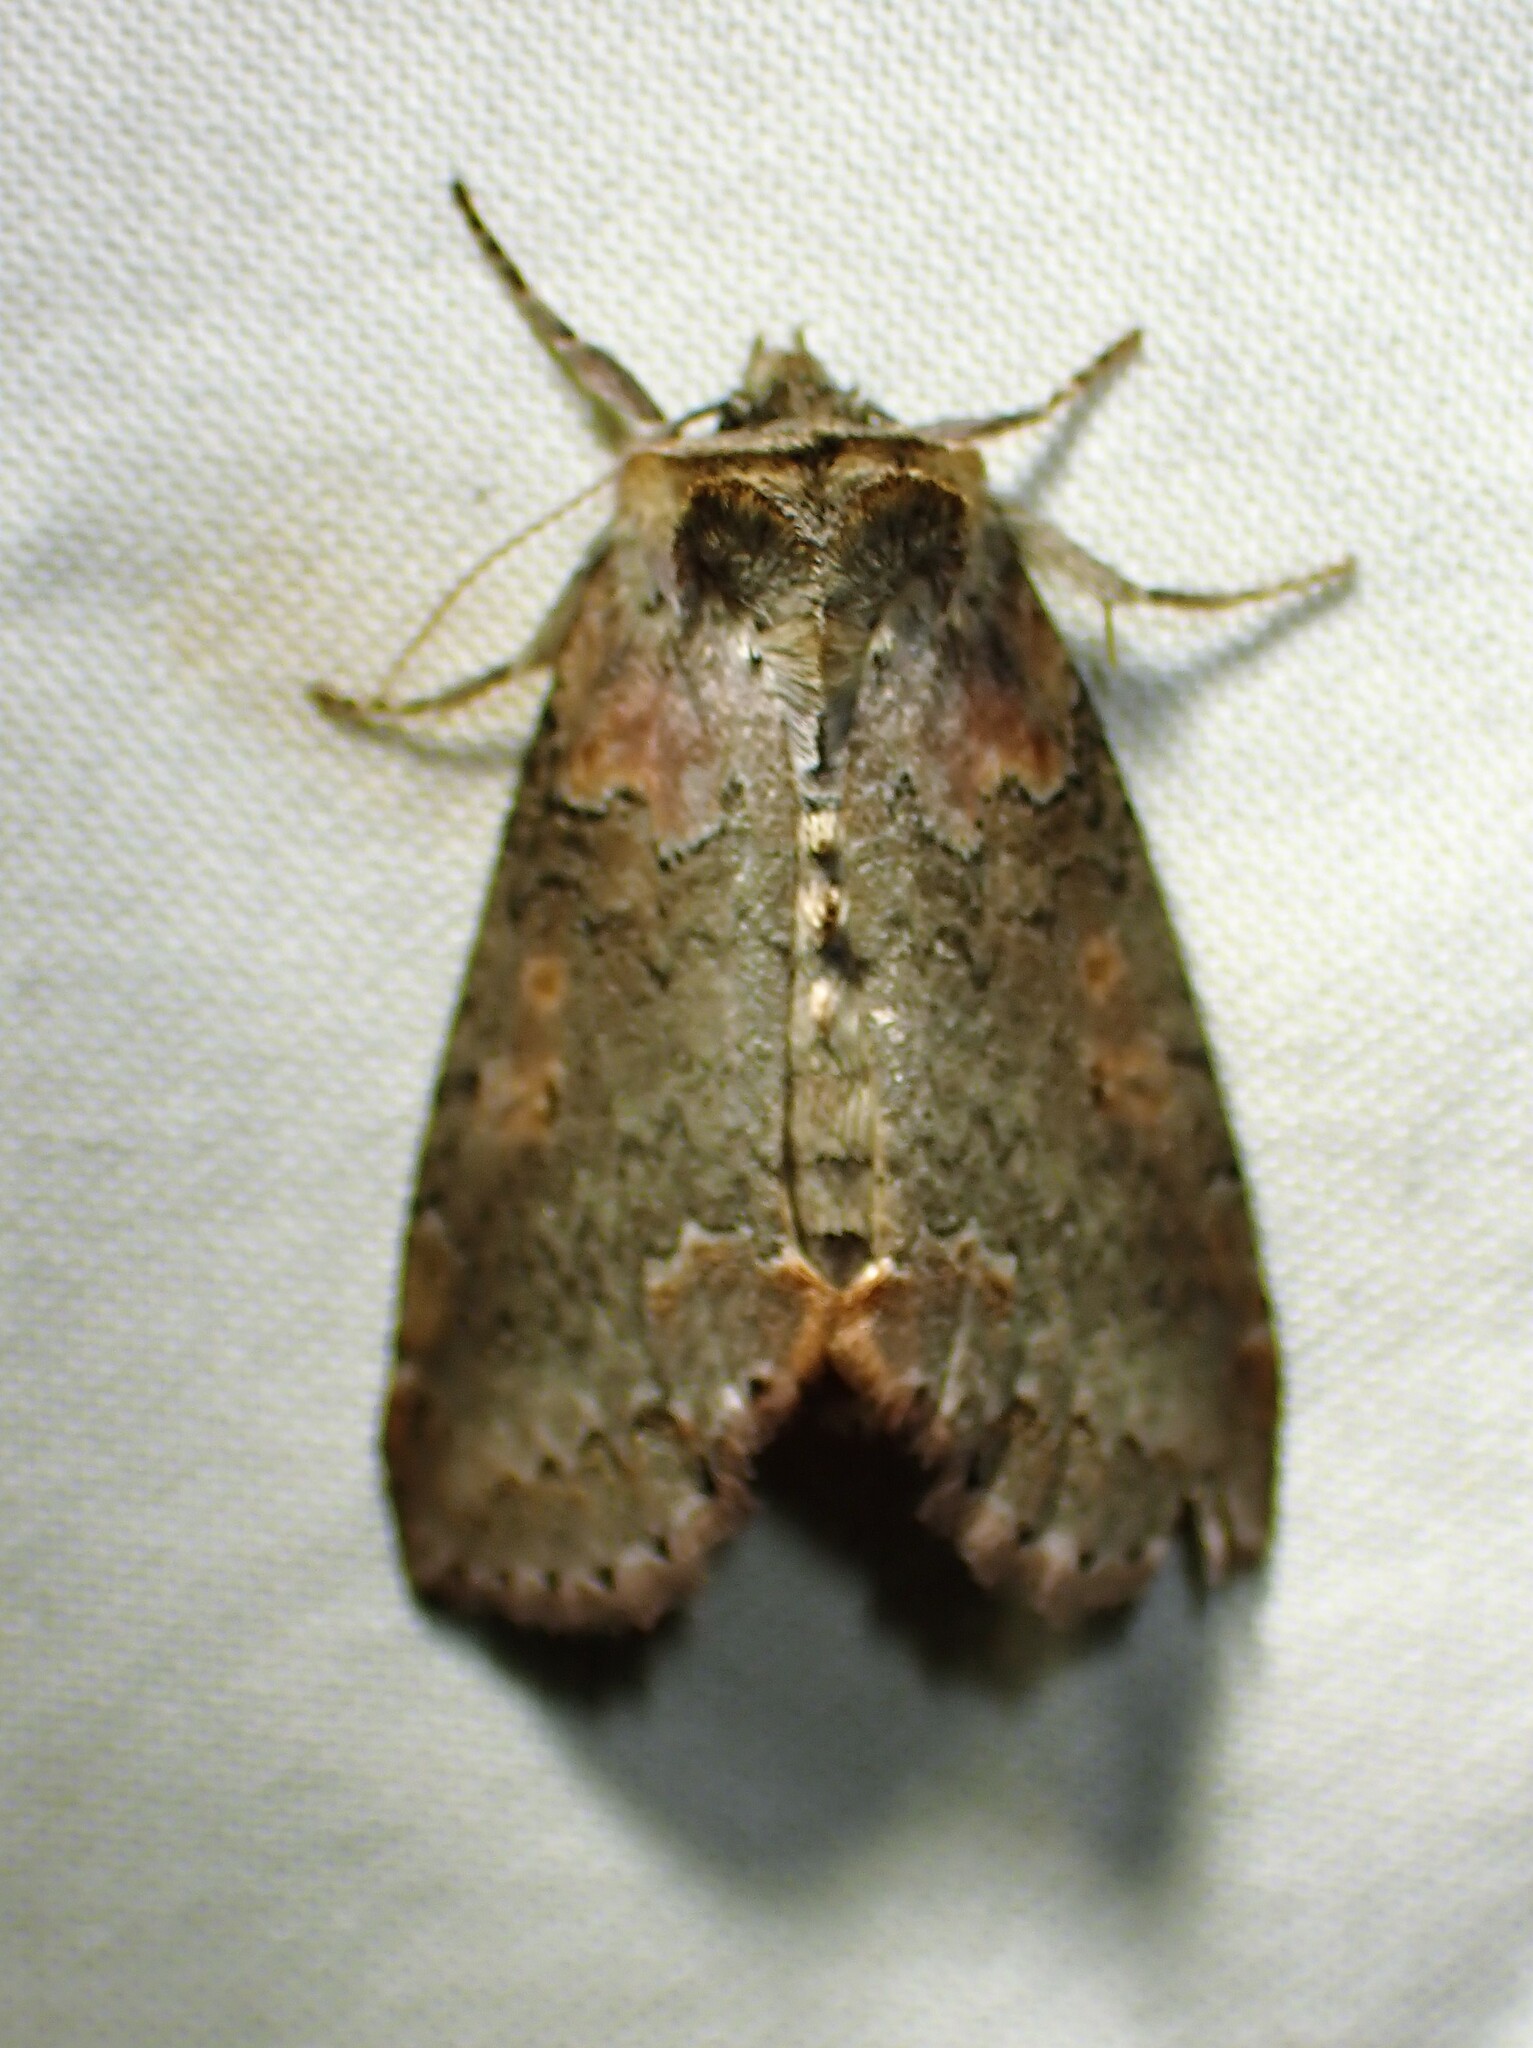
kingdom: Animalia
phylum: Arthropoda
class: Insecta
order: Lepidoptera
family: Drepanidae
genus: Pseudothyatira
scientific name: Pseudothyatira cymatophoroides
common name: Tufted thyatirid moth
